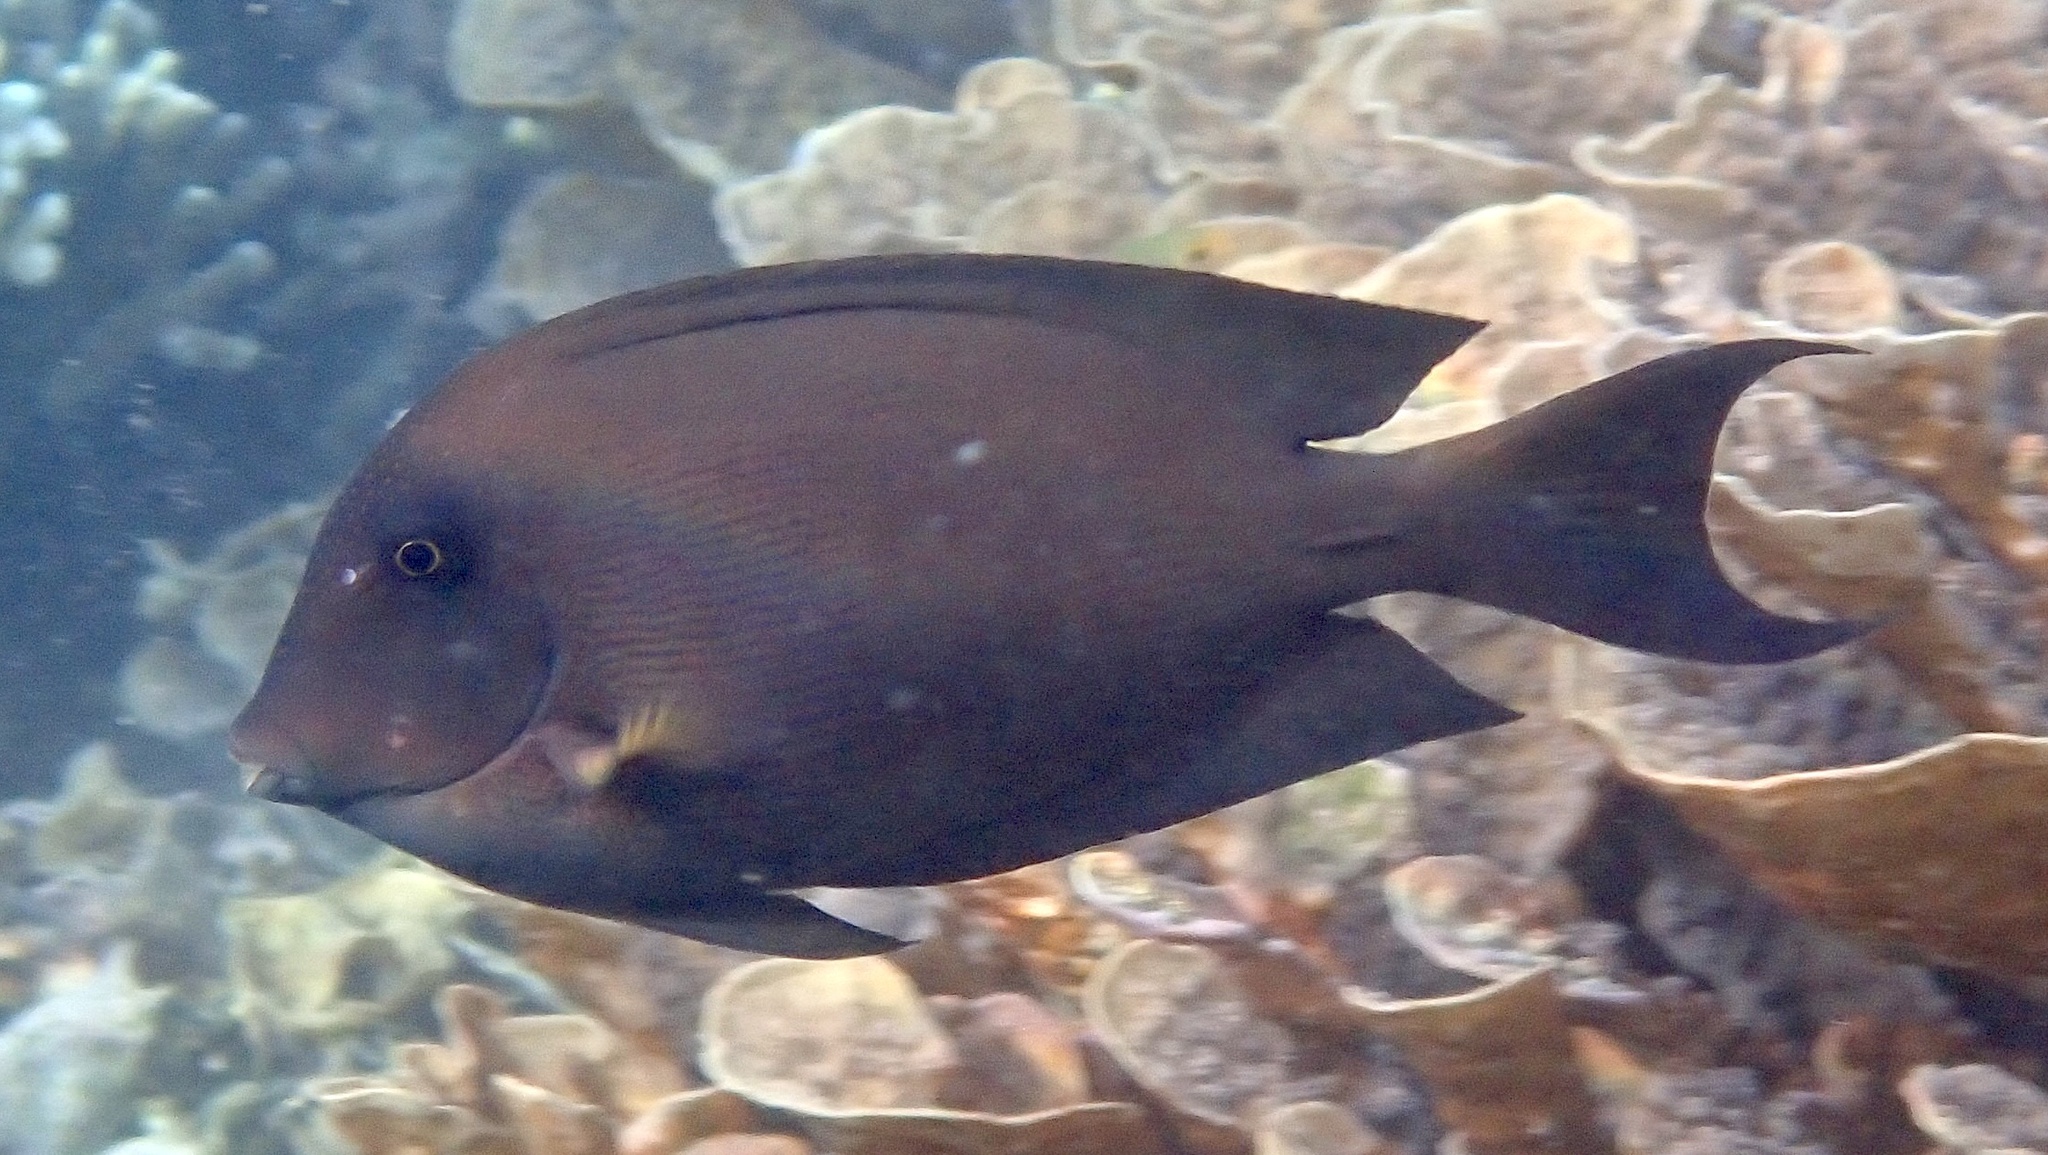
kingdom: Animalia
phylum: Chordata
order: Perciformes
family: Acanthuridae
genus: Ctenochaetus
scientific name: Ctenochaetus striatus
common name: Bristle-toothed surgeonfish
